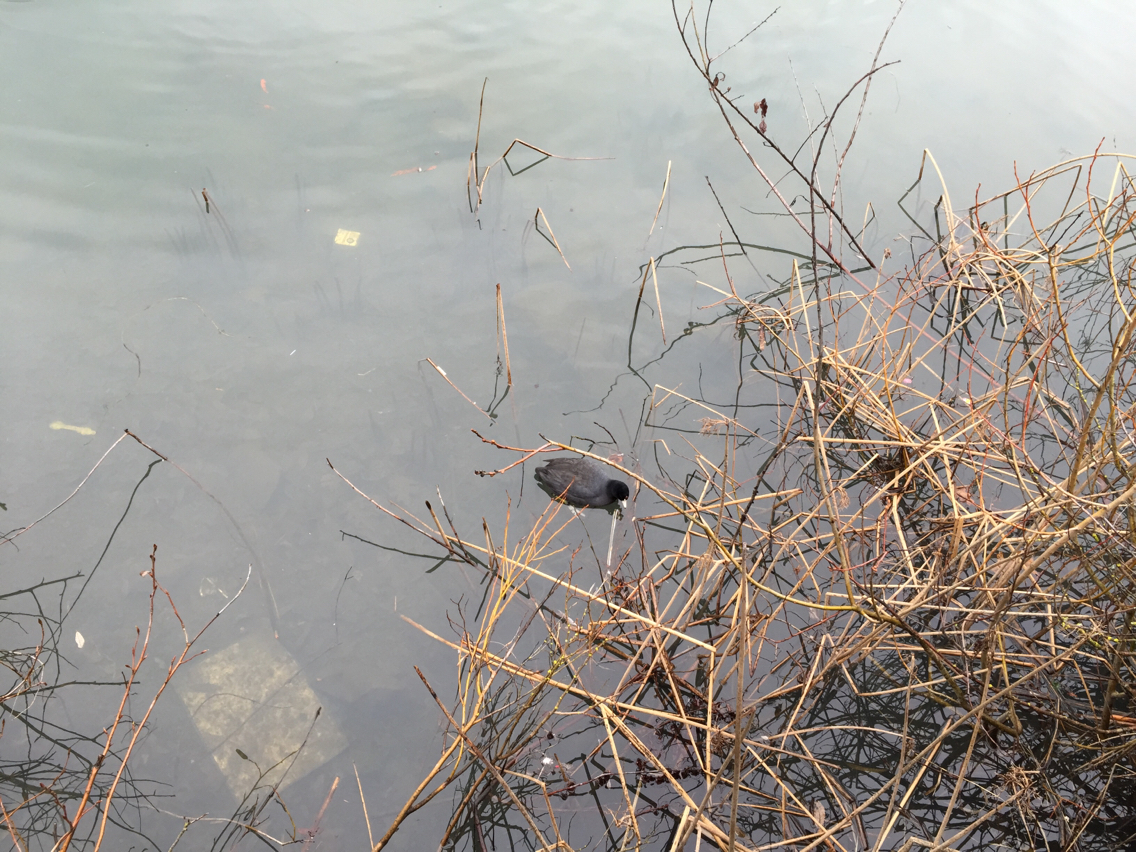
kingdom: Animalia
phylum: Chordata
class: Aves
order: Gruiformes
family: Rallidae
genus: Fulica
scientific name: Fulica americana
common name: American coot
